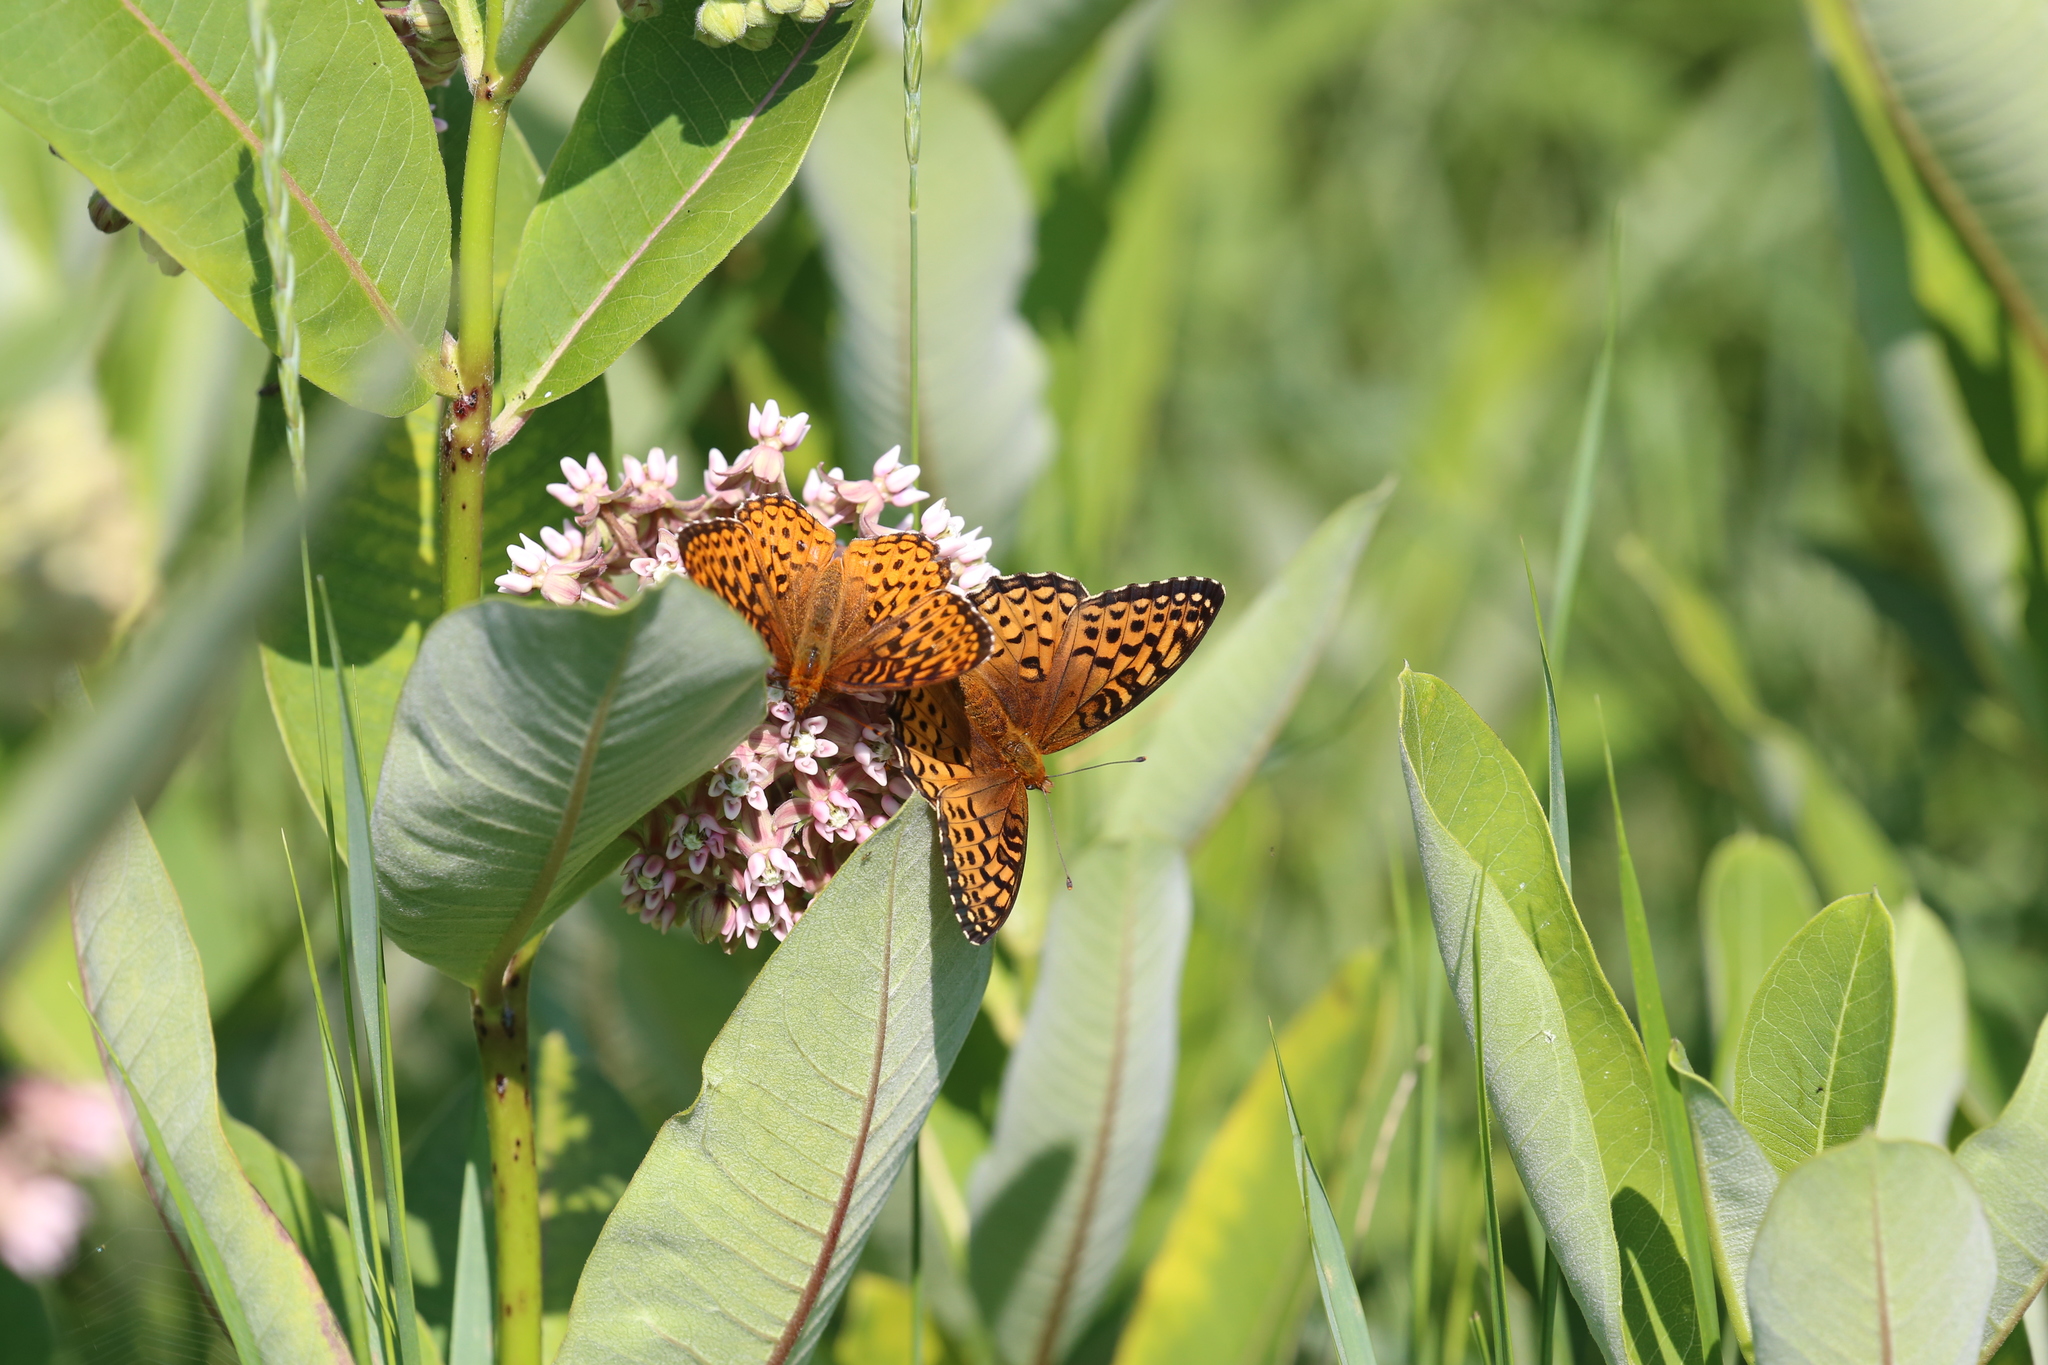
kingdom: Animalia
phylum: Arthropoda
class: Insecta
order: Lepidoptera
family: Nymphalidae
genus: Speyeria
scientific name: Speyeria atlantis
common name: Atlantis fritillary
